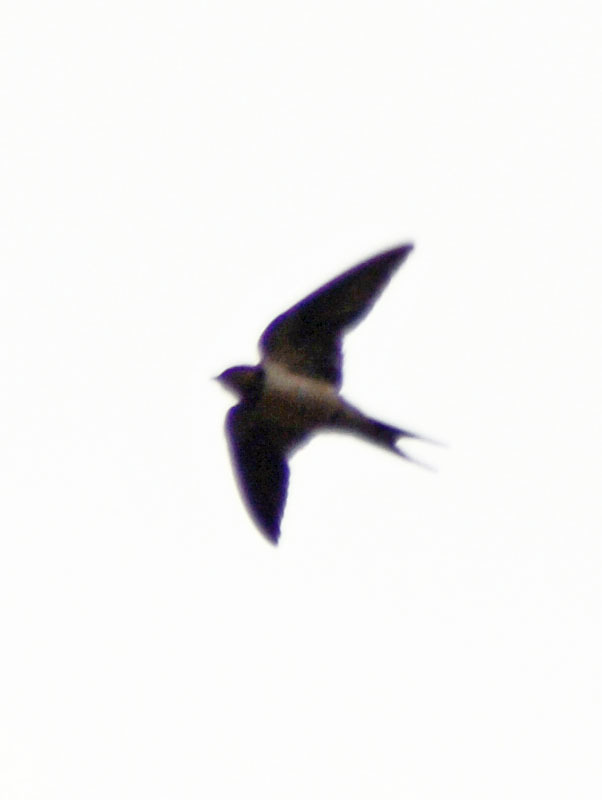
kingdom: Animalia
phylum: Chordata
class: Aves
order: Passeriformes
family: Hirundinidae
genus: Hirundo
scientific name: Hirundo rustica
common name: Barn swallow
